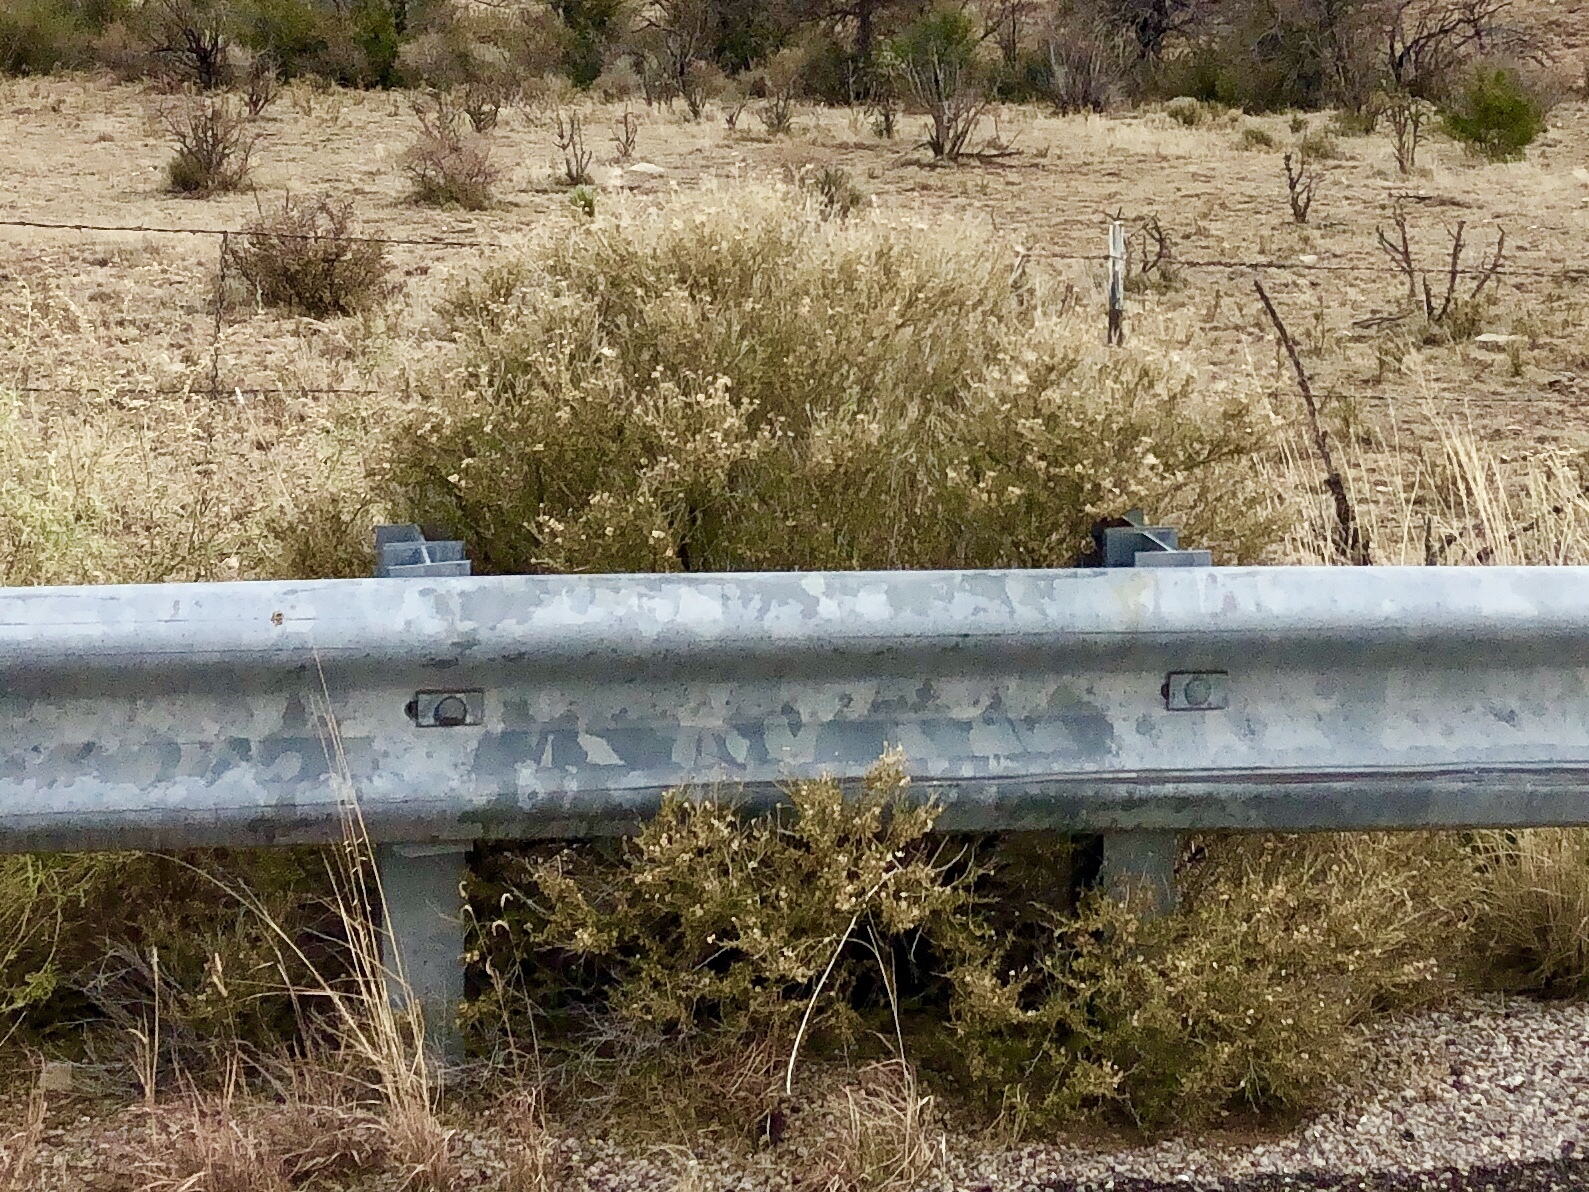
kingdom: Plantae
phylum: Tracheophyta
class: Magnoliopsida
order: Rosales
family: Rosaceae
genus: Fallugia
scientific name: Fallugia paradoxa
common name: Apache-plume
